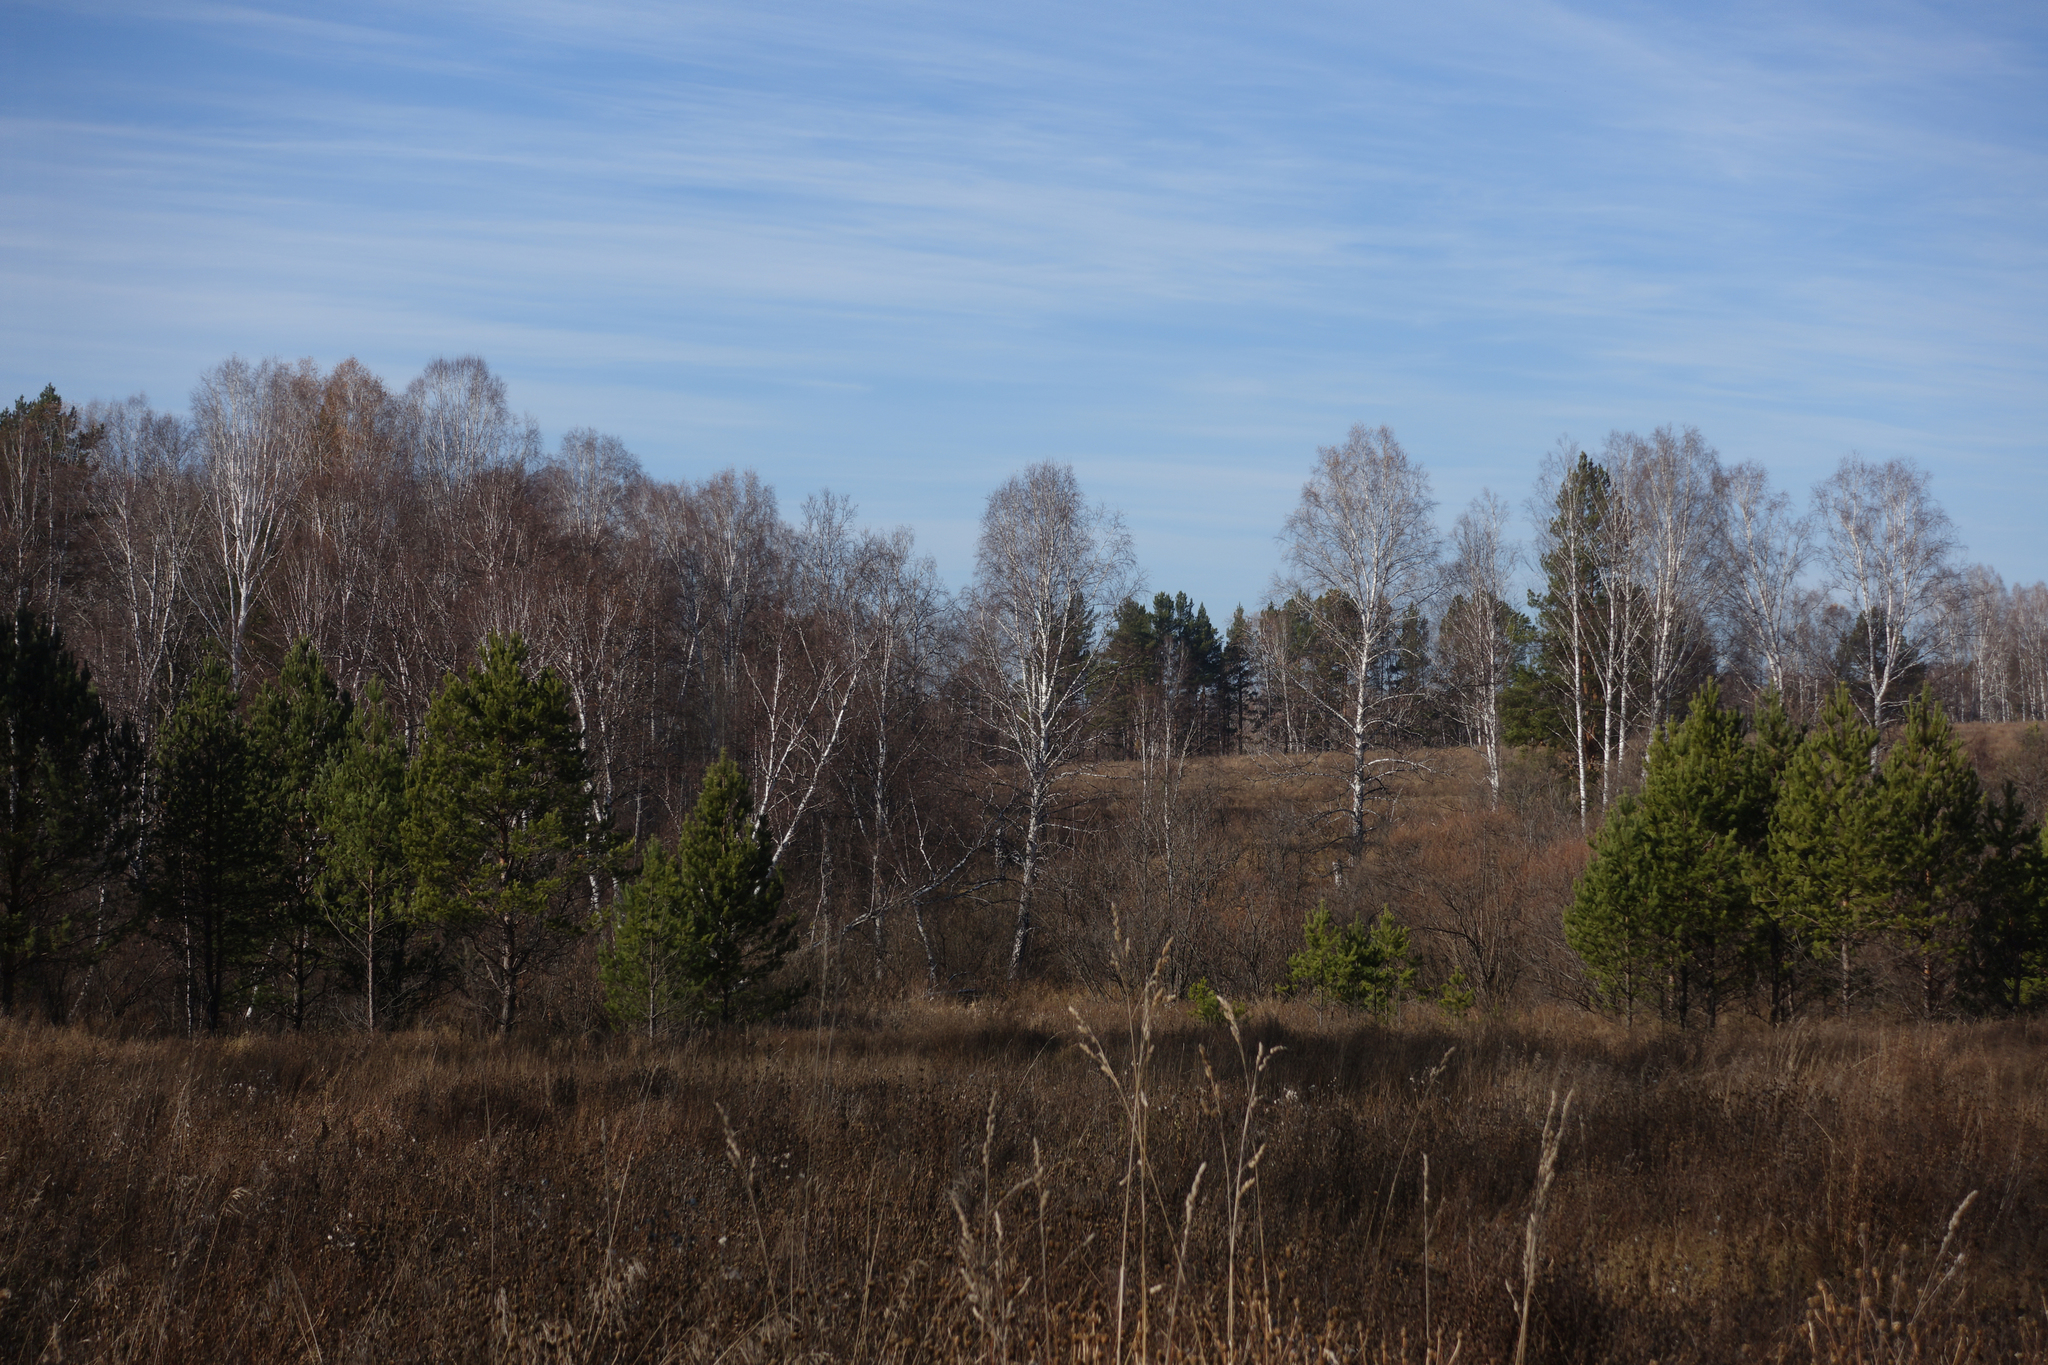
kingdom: Plantae
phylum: Tracheophyta
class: Pinopsida
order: Pinales
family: Pinaceae
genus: Pinus
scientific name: Pinus sylvestris
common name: Scots pine
